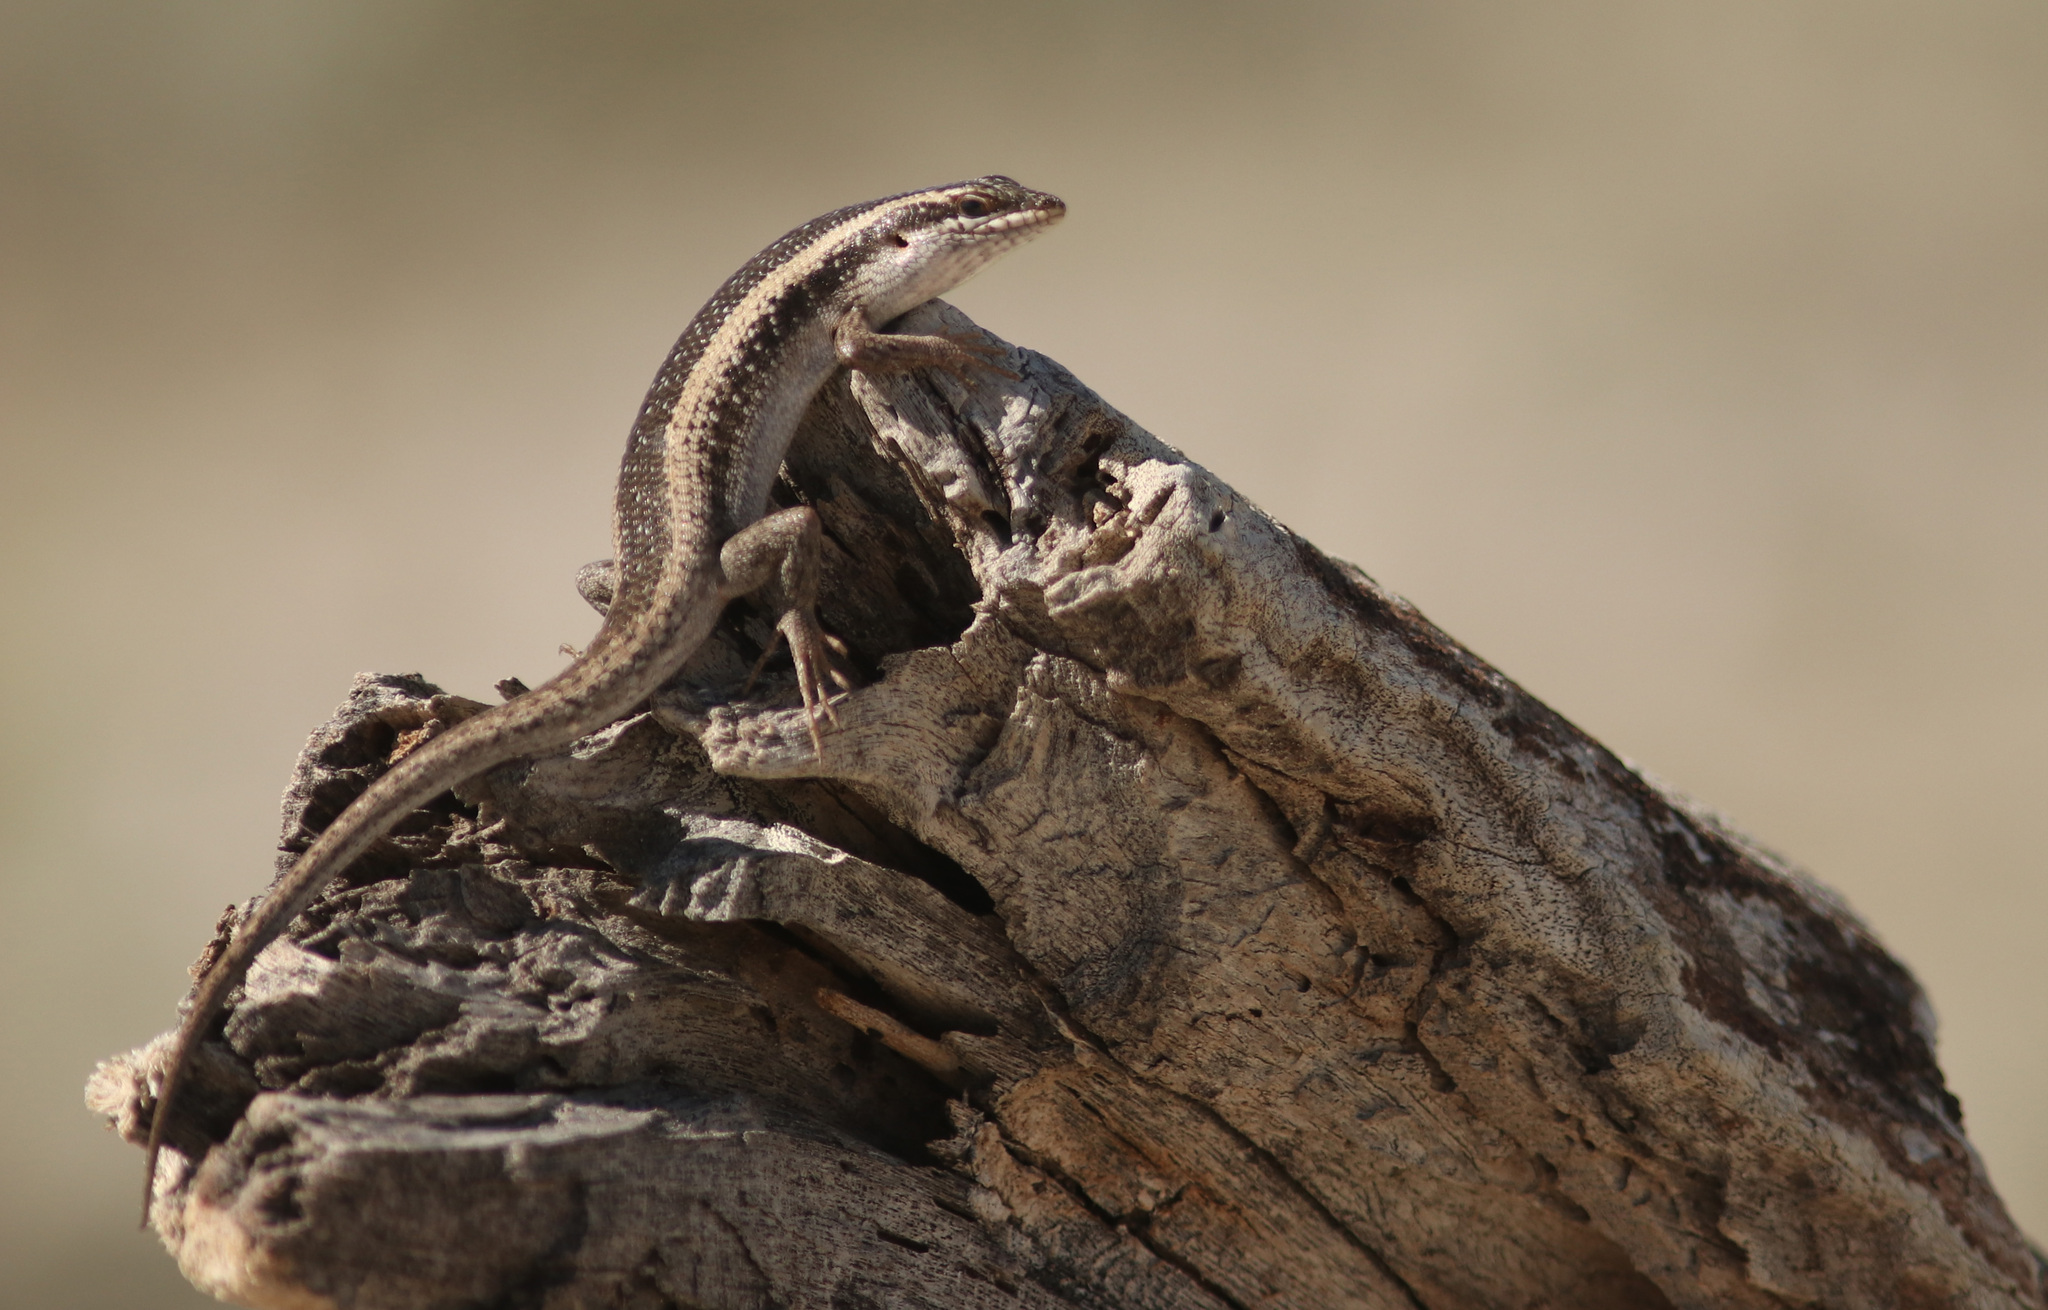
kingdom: Animalia
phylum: Chordata
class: Squamata
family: Scincidae
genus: Trachylepis
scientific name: Trachylepis spilogaster
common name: Kalahari tree skink
